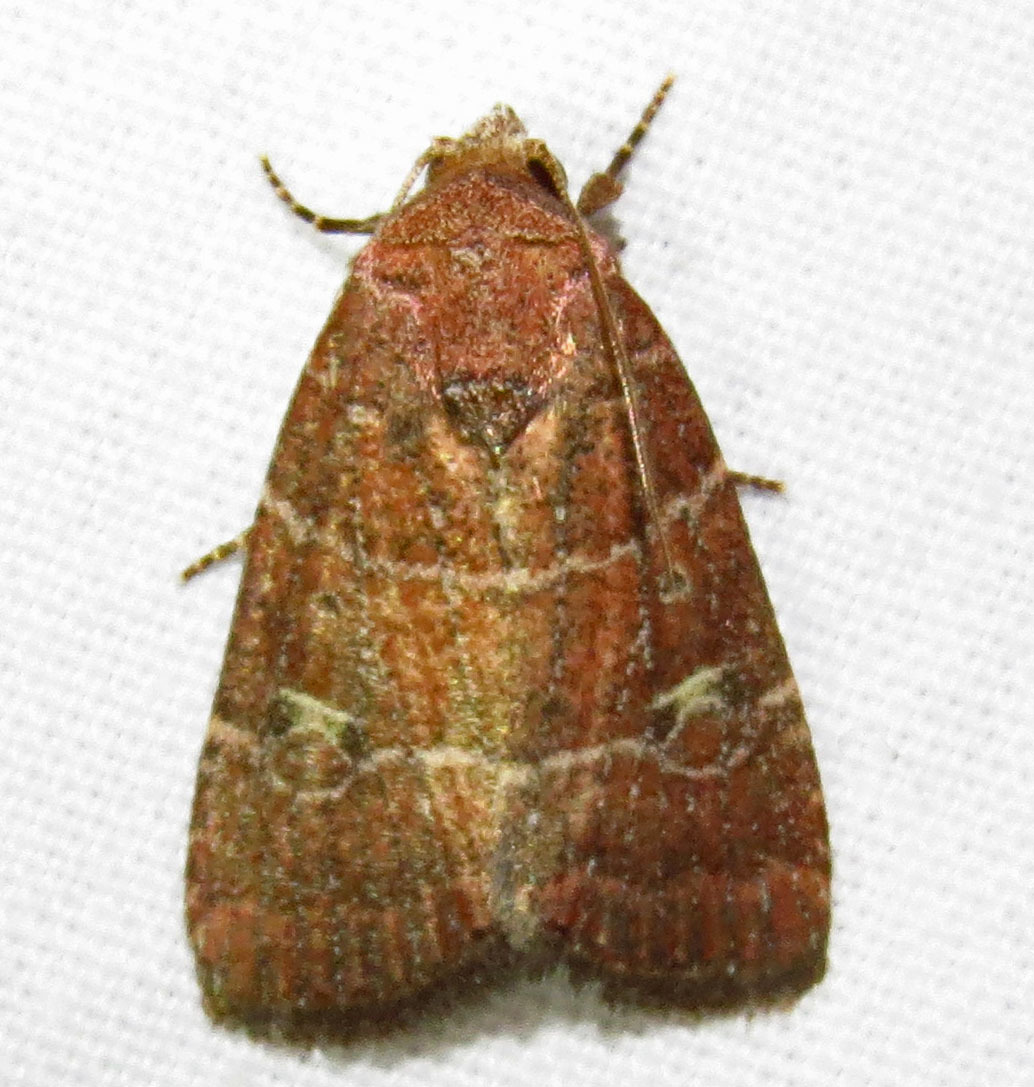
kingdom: Animalia
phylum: Arthropoda
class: Insecta
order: Lepidoptera
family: Noctuidae
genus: Elaphria
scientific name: Elaphria grata
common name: Grateful midget moth
